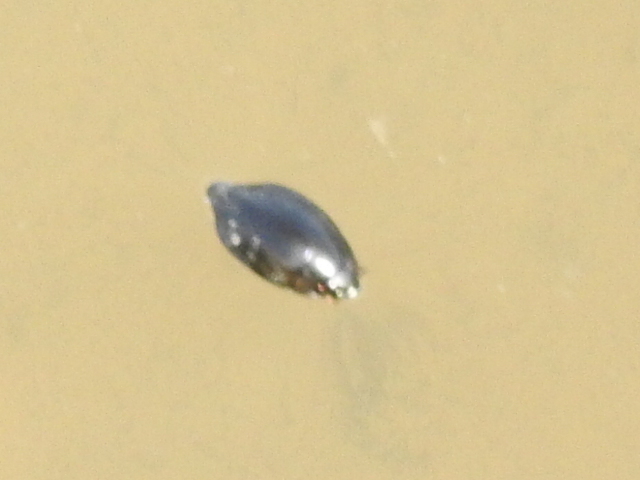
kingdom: Animalia
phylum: Arthropoda
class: Insecta
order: Coleoptera
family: Gyrinidae
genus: Dineutus
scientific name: Dineutus
